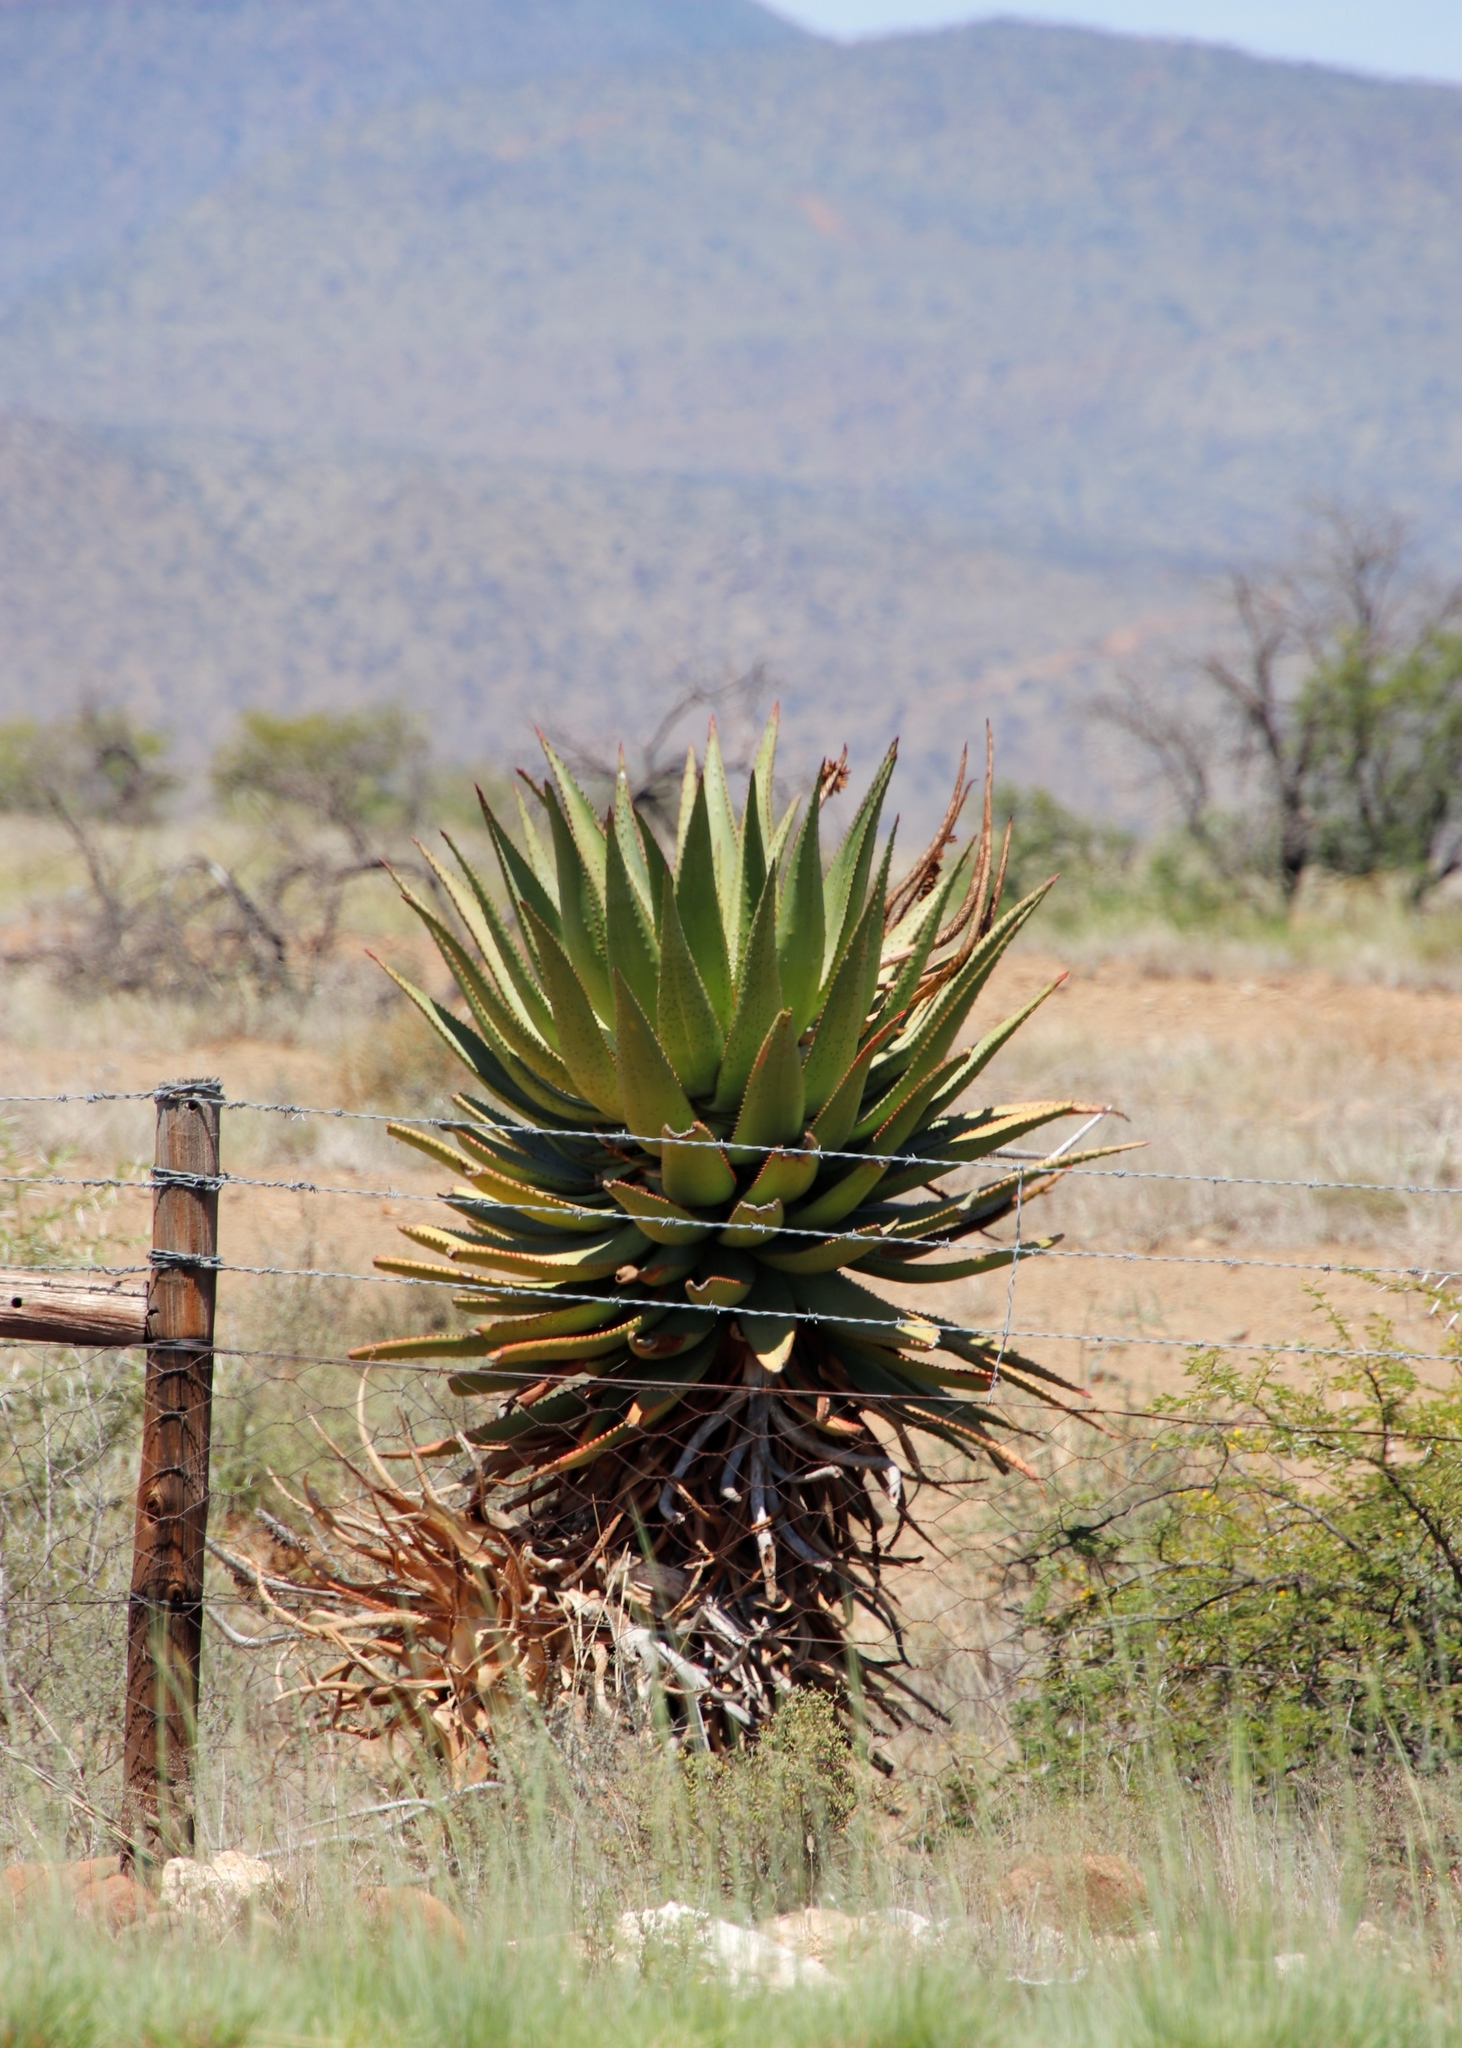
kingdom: Plantae
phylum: Tracheophyta
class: Liliopsida
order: Asparagales
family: Asphodelaceae
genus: Aloe
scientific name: Aloe ferox
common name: Bitter aloe
